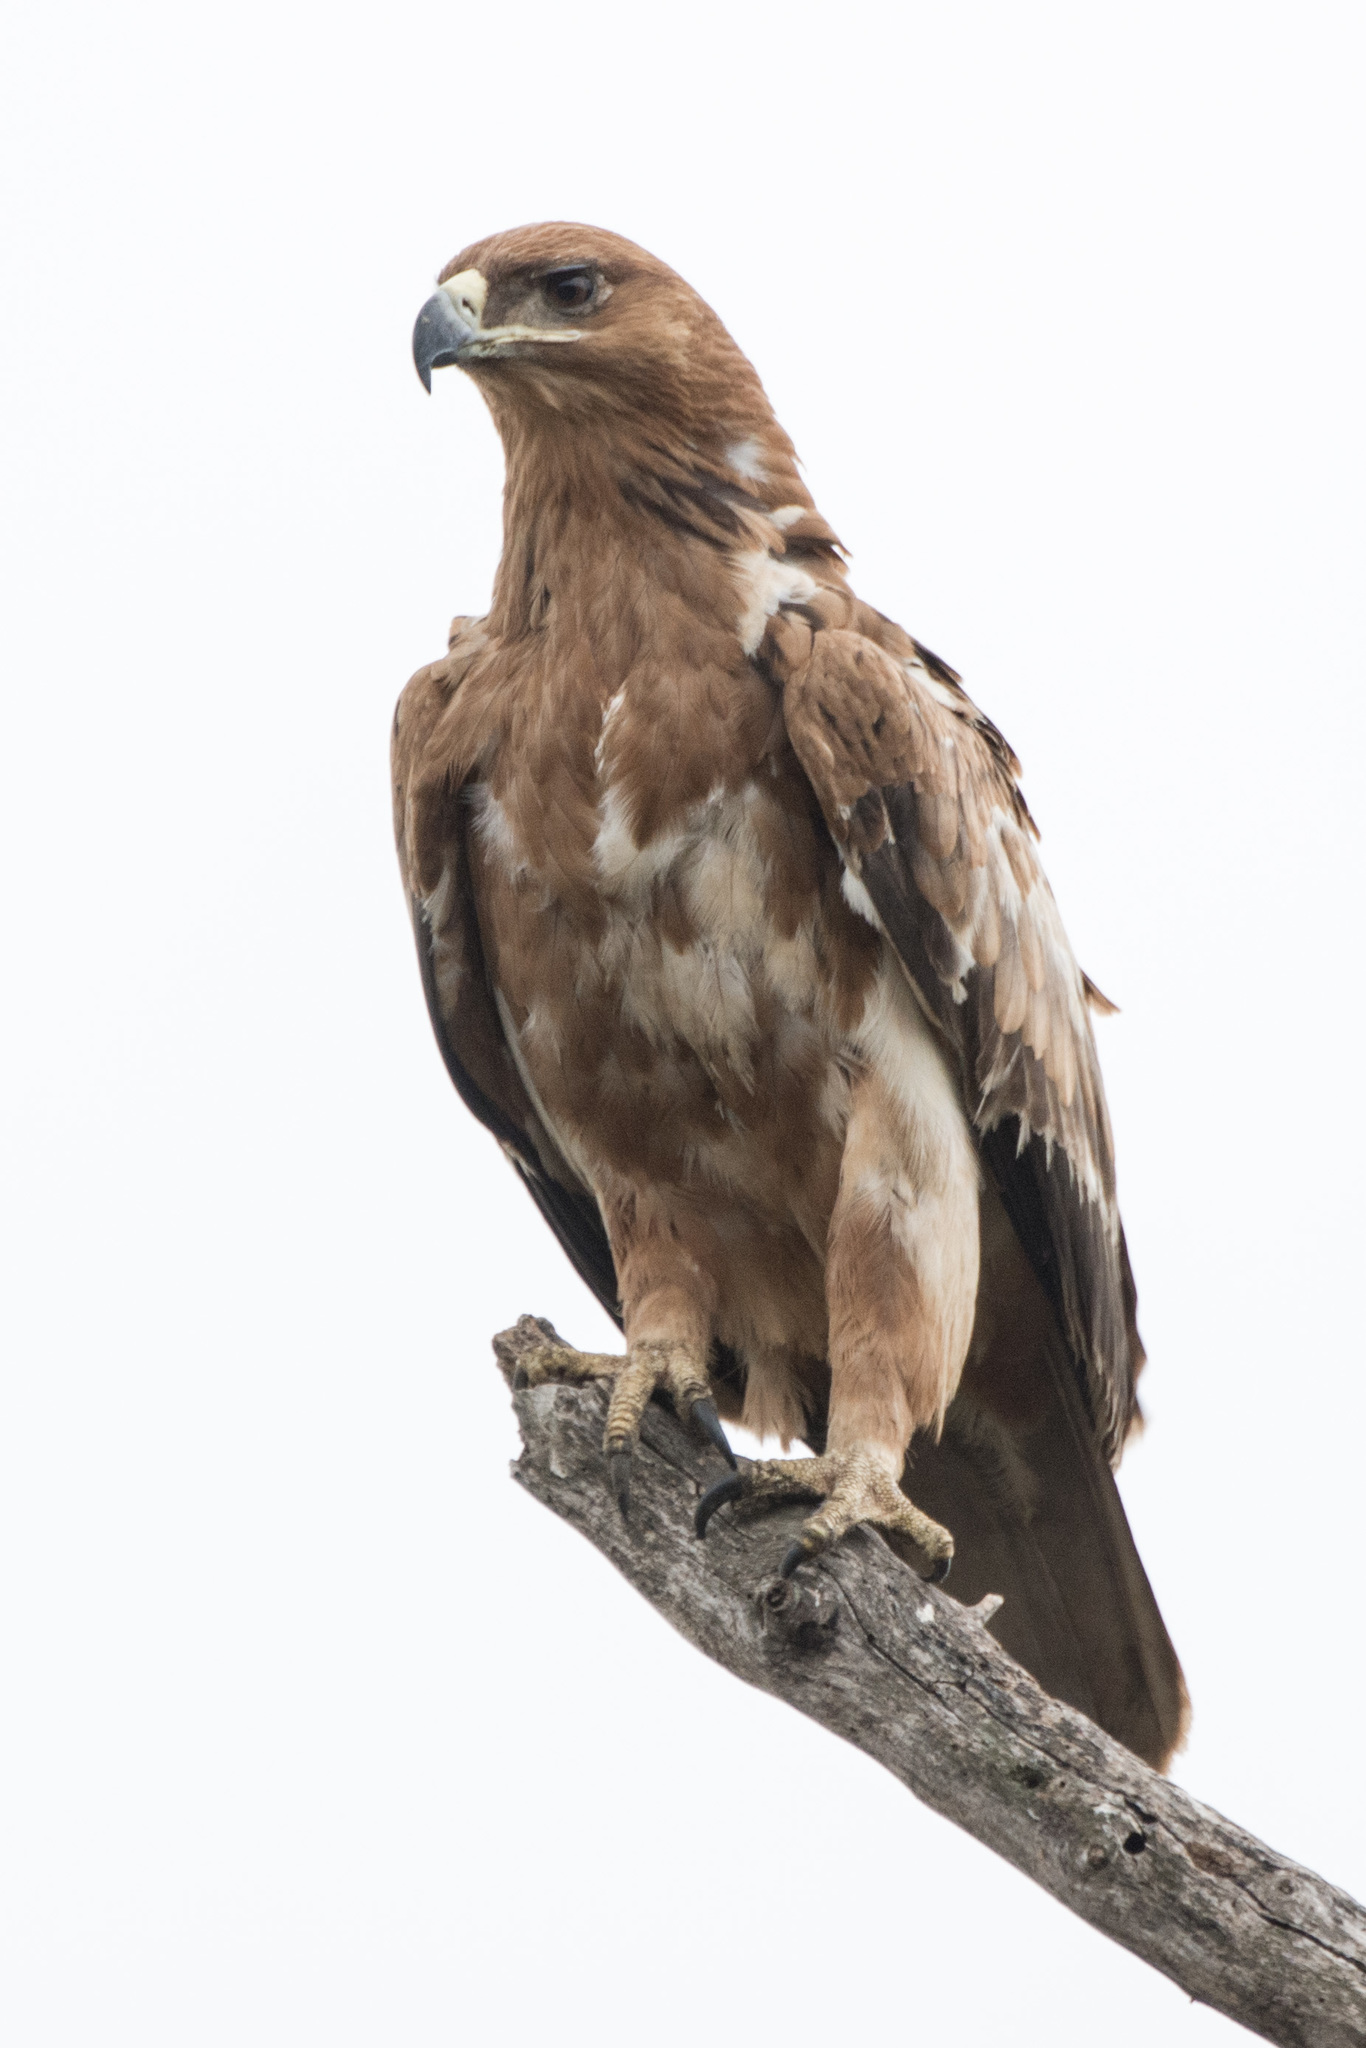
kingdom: Animalia
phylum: Chordata
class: Aves
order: Accipitriformes
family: Accipitridae
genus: Aquila
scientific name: Aquila rapax
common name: Tawny eagle
